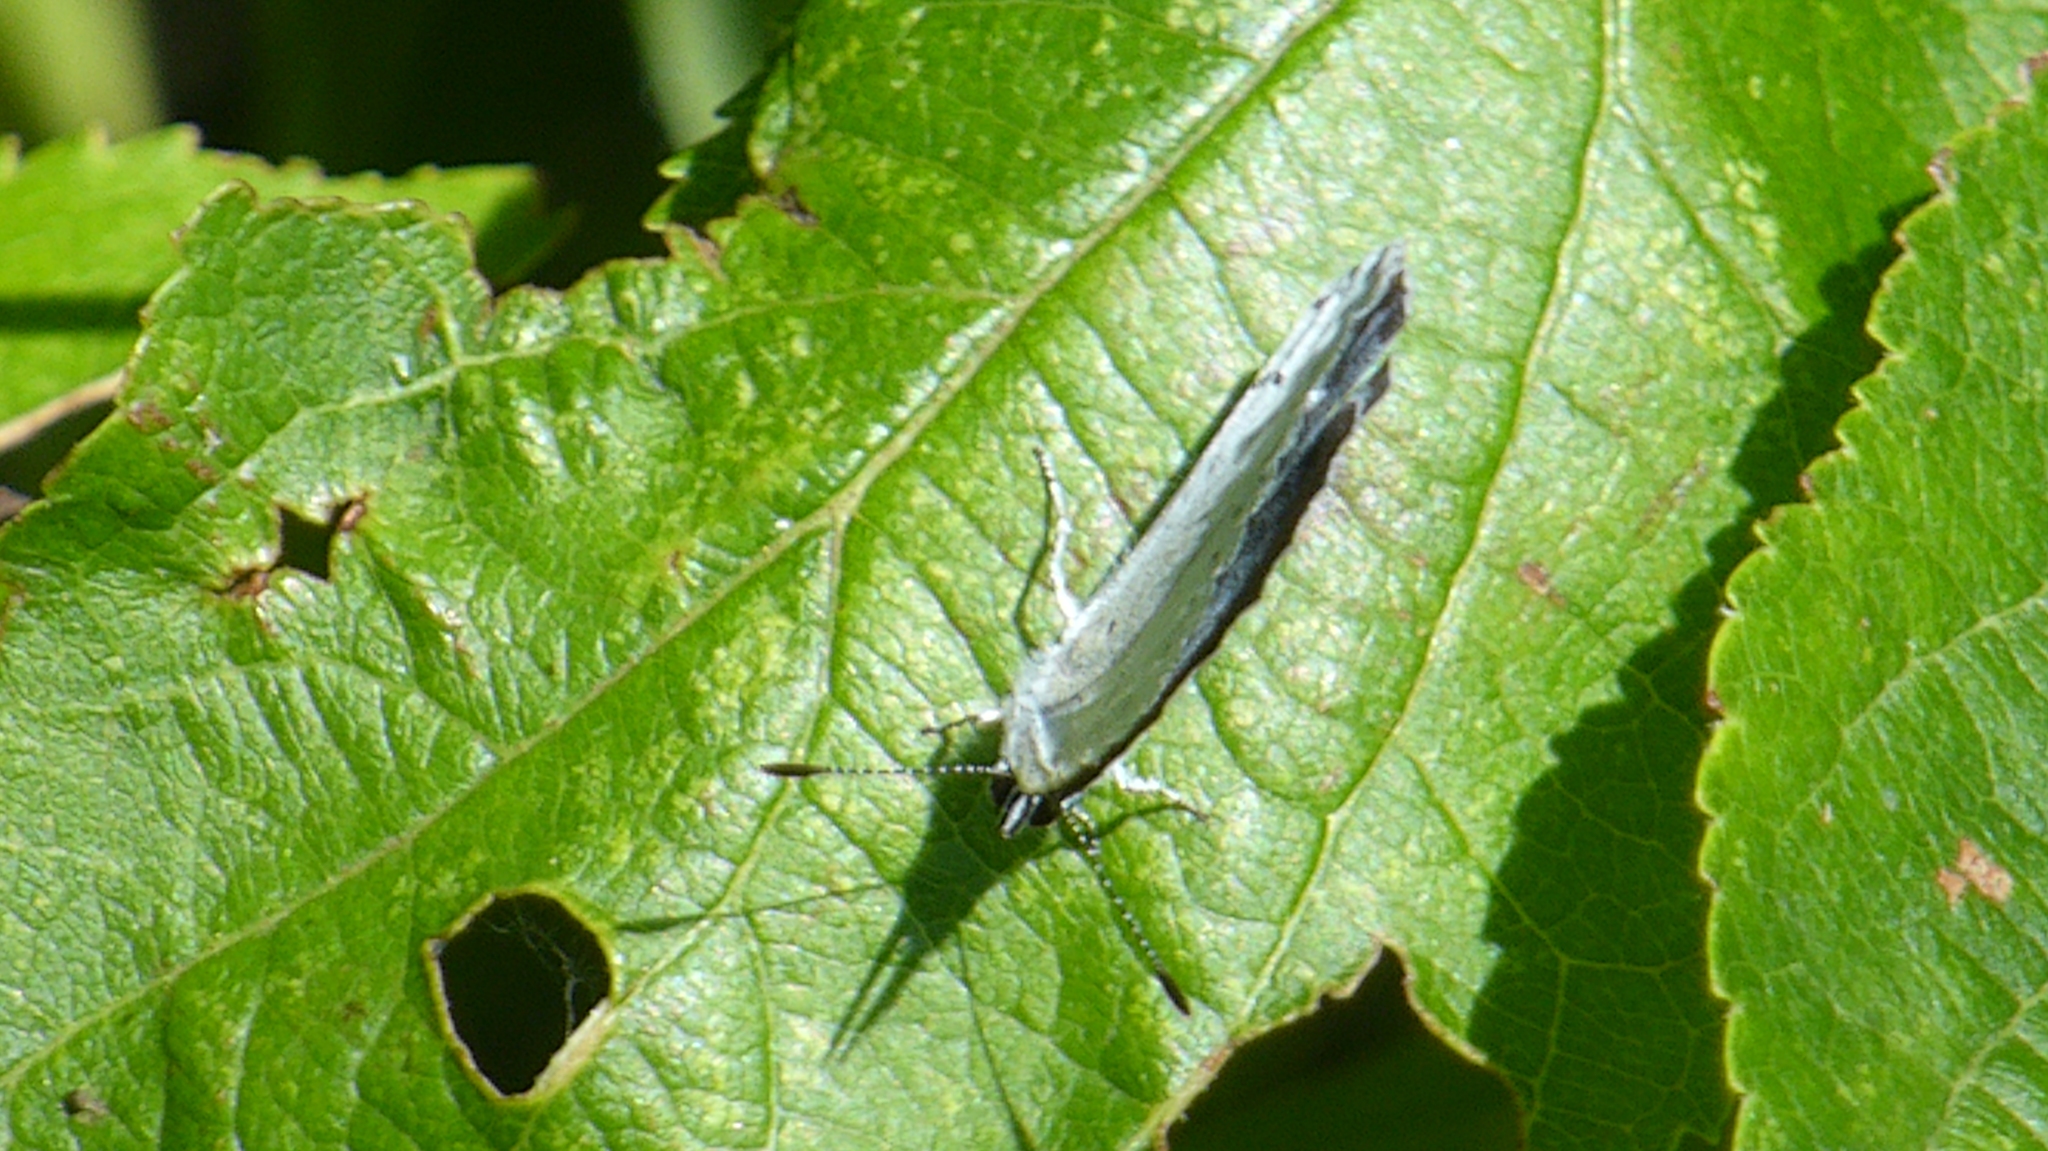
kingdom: Animalia
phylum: Arthropoda
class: Insecta
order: Lepidoptera
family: Lycaenidae
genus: Celastrina
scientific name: Celastrina argiolus
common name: Holly blue
